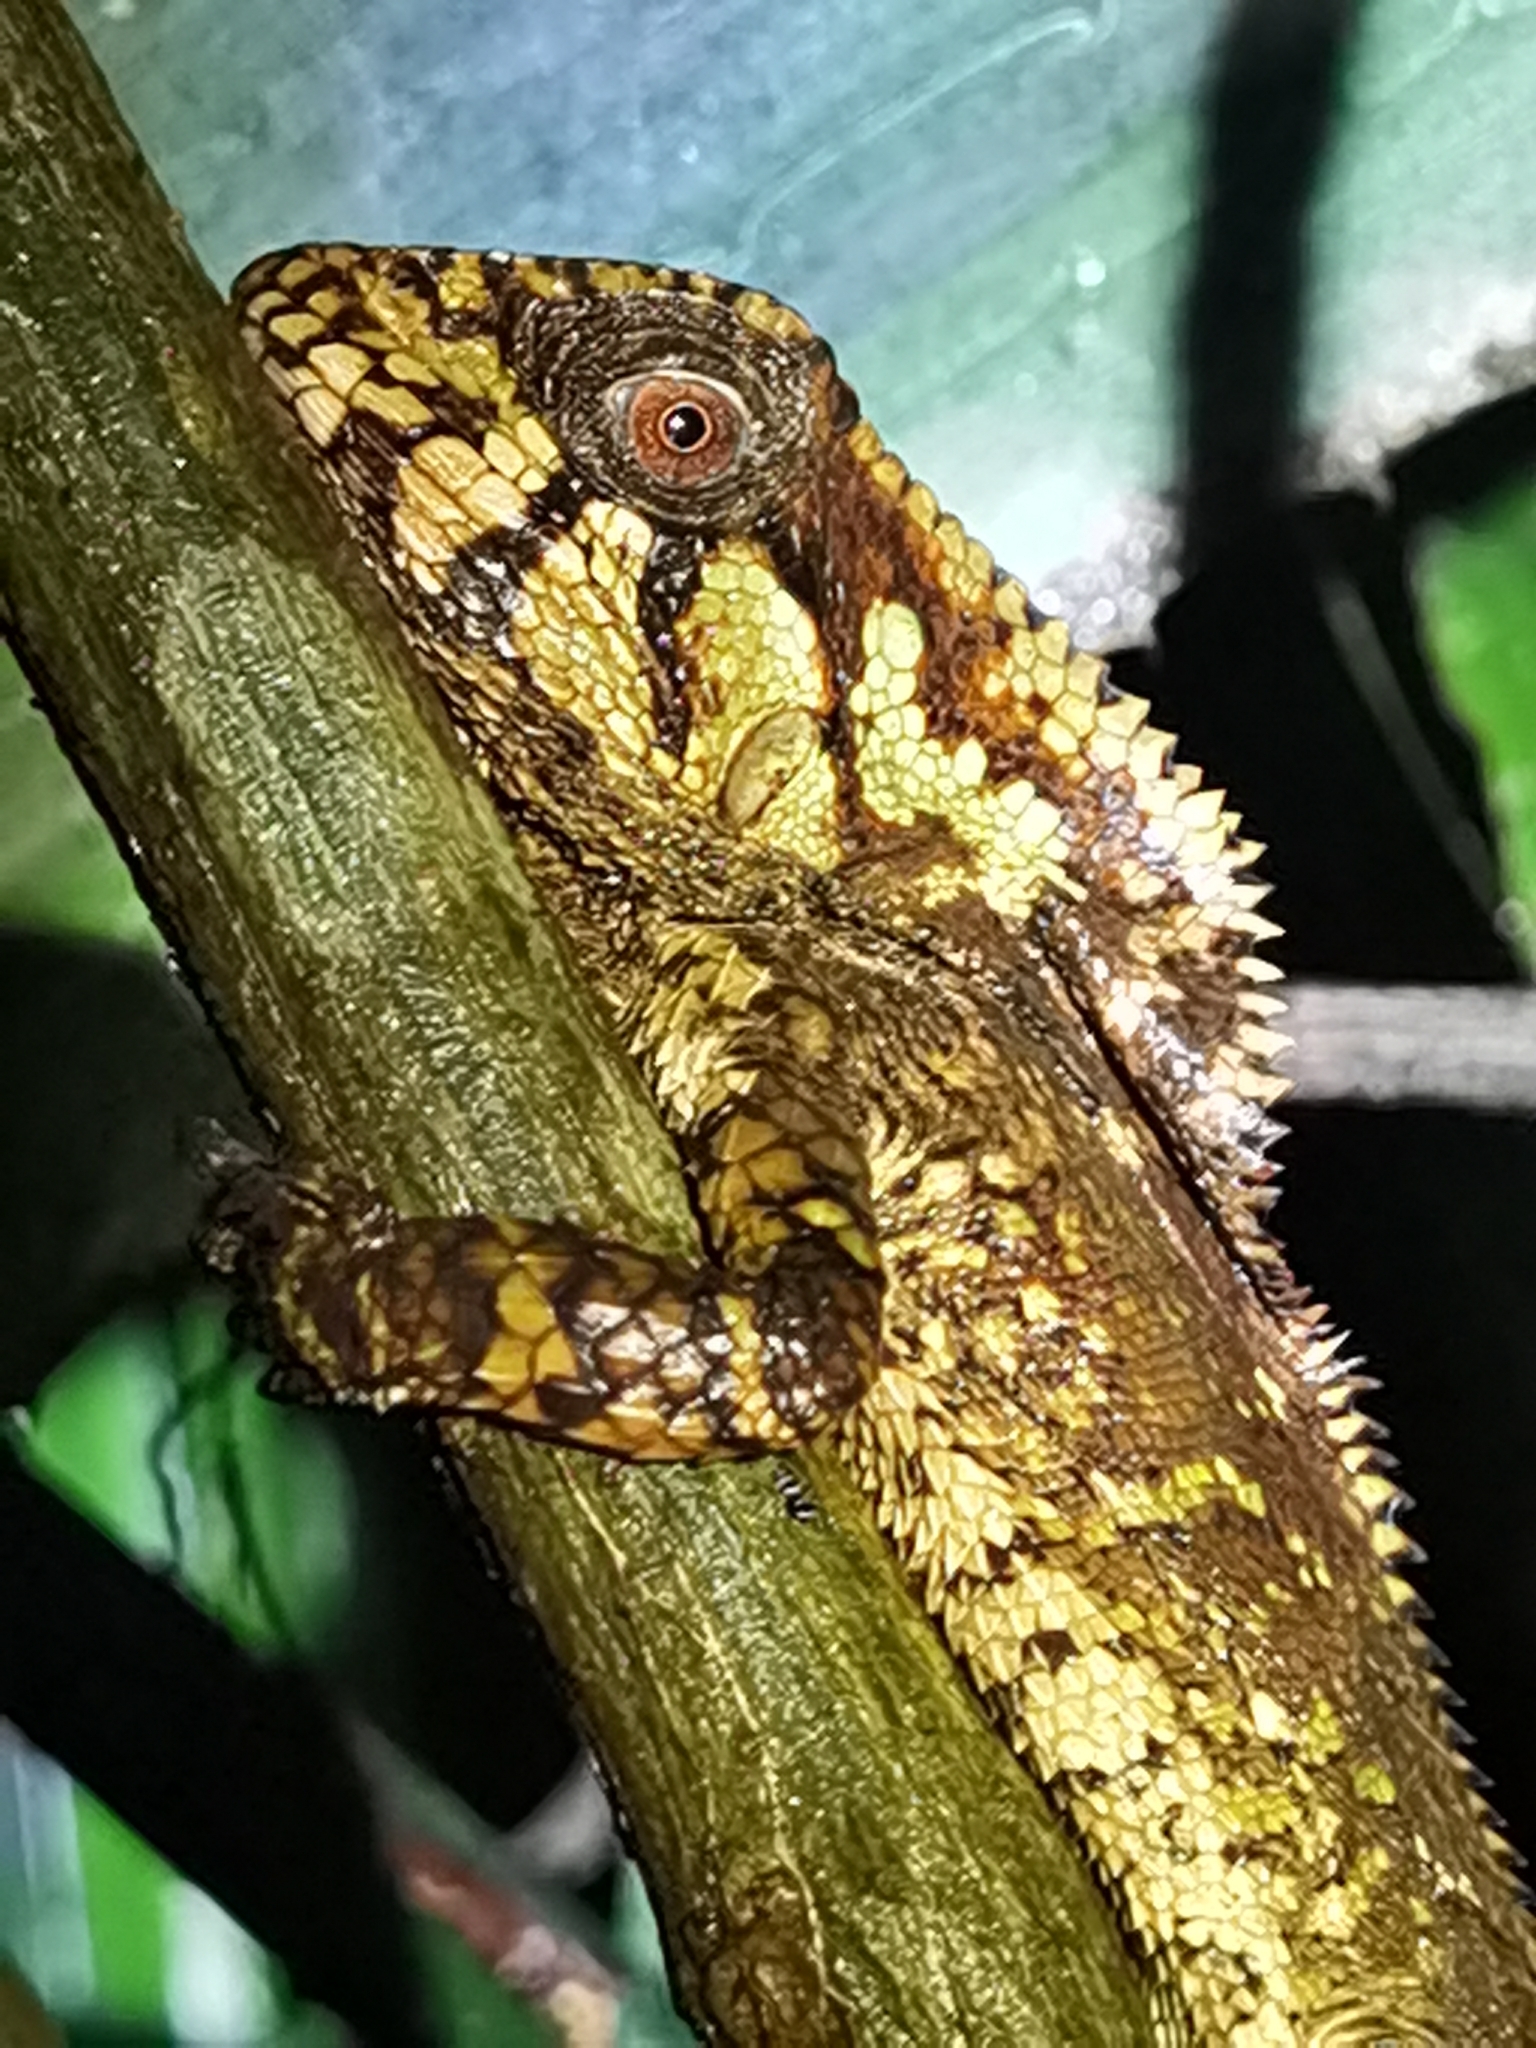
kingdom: Animalia
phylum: Chordata
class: Squamata
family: Corytophanidae
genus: Corytophanes
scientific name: Corytophanes cristatus
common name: Smooth helmeted iguana
